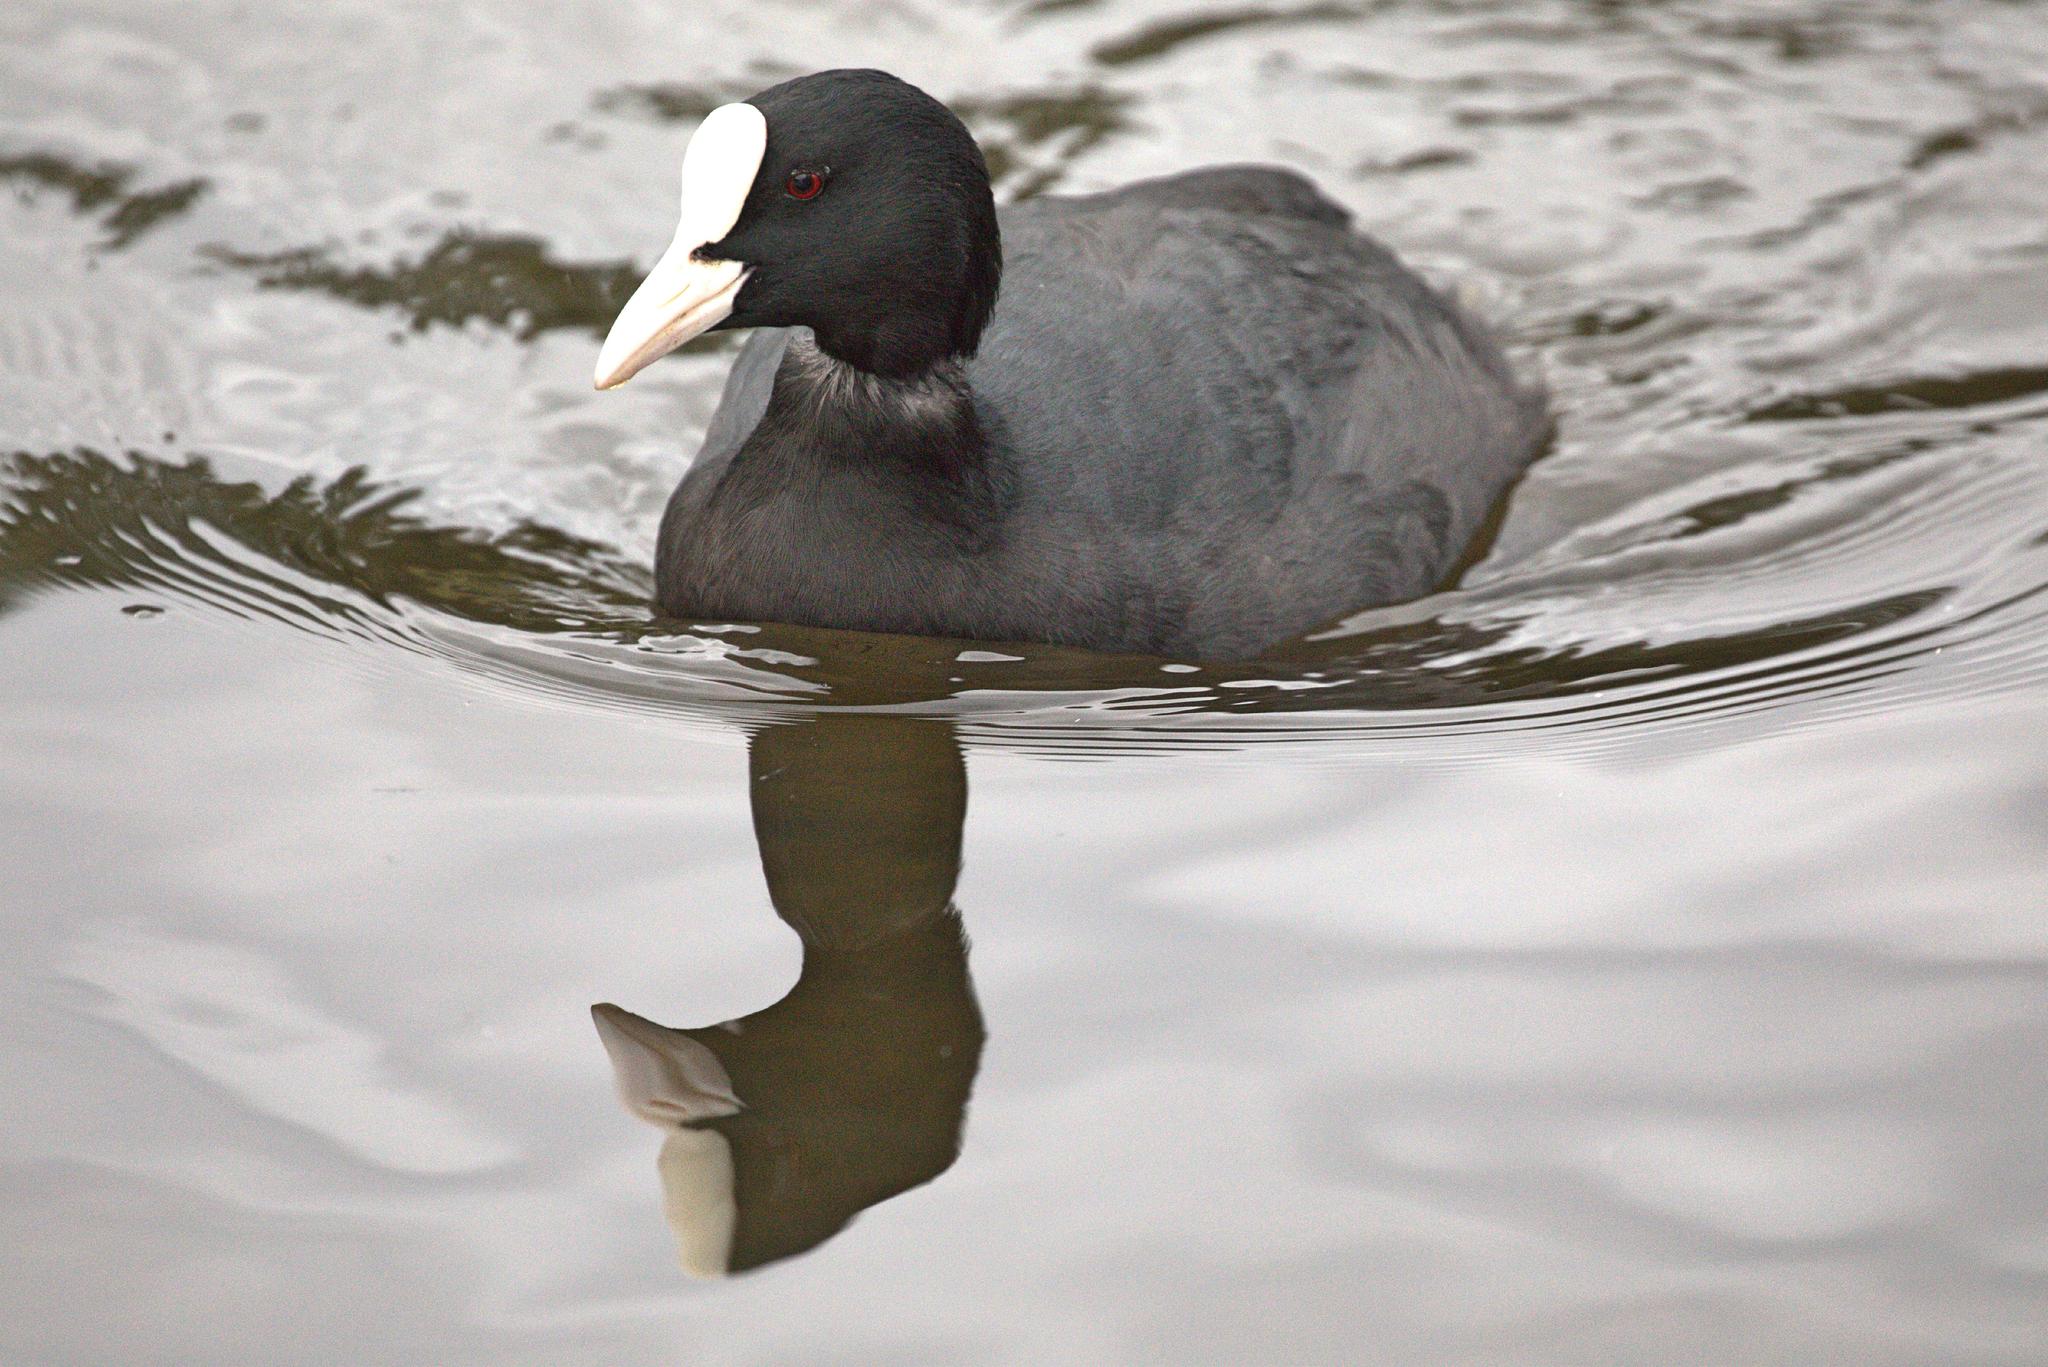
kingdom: Animalia
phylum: Chordata
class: Aves
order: Gruiformes
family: Rallidae
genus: Fulica
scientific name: Fulica atra
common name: Eurasian coot
